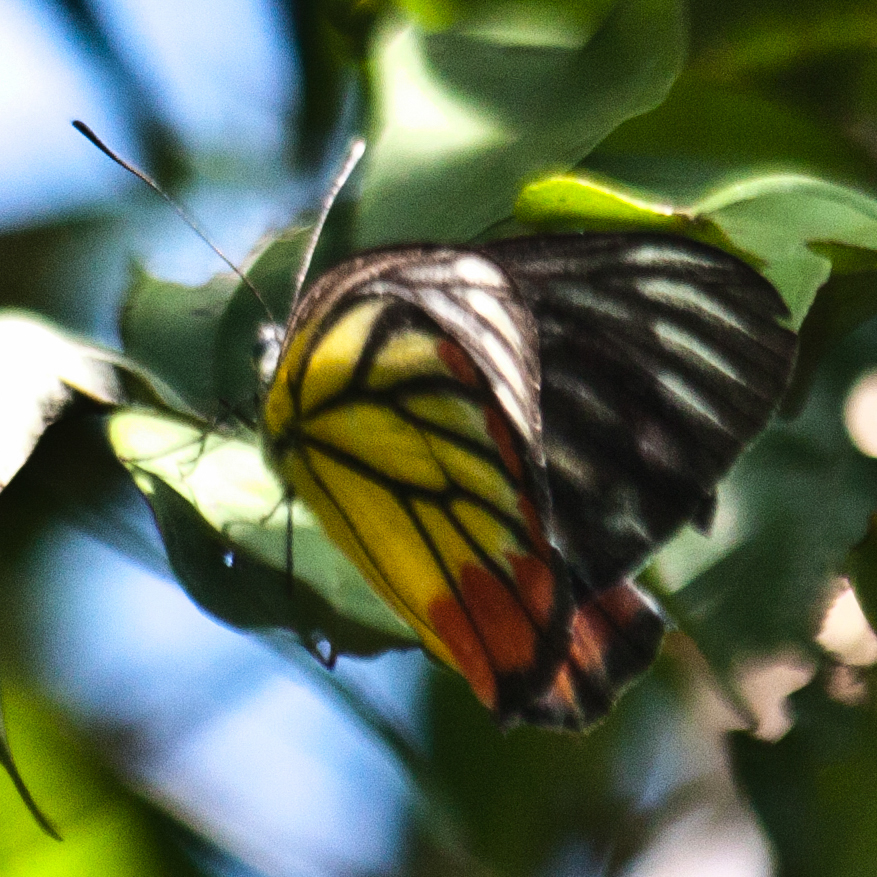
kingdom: Animalia
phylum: Arthropoda
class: Insecta
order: Lepidoptera
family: Pieridae
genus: Delias
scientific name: Delias hyparete
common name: Painted jezebel
